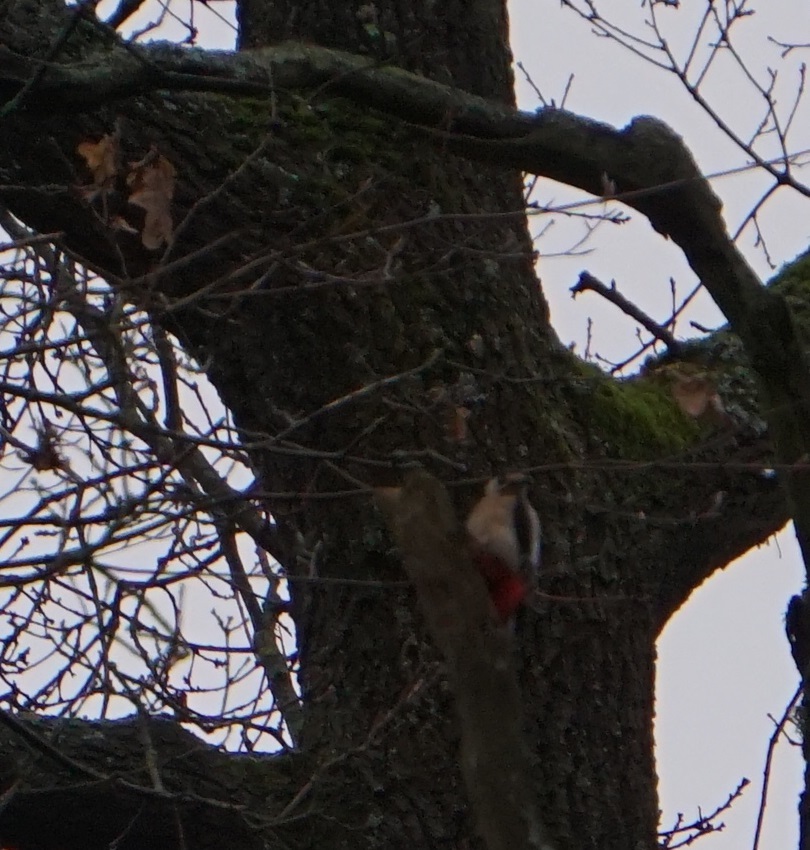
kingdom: Animalia
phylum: Chordata
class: Aves
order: Piciformes
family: Picidae
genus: Dendrocopos
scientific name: Dendrocopos major
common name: Great spotted woodpecker
